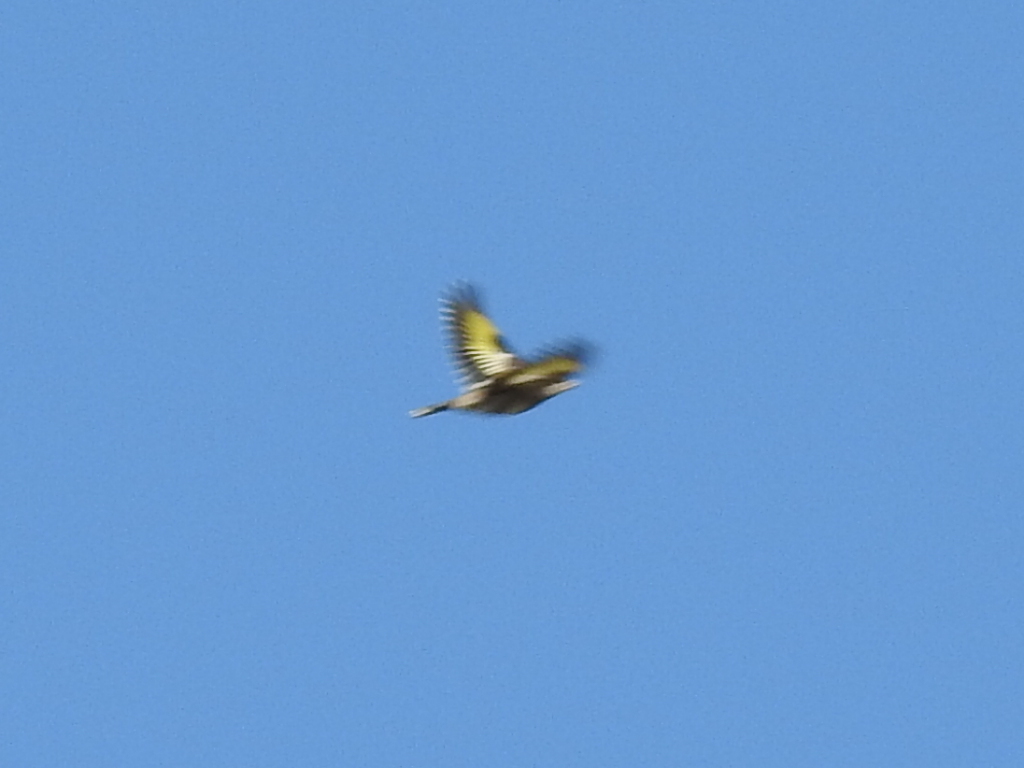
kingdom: Animalia
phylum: Chordata
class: Aves
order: Passeriformes
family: Fringillidae
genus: Carduelis
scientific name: Carduelis carduelis
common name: European goldfinch
